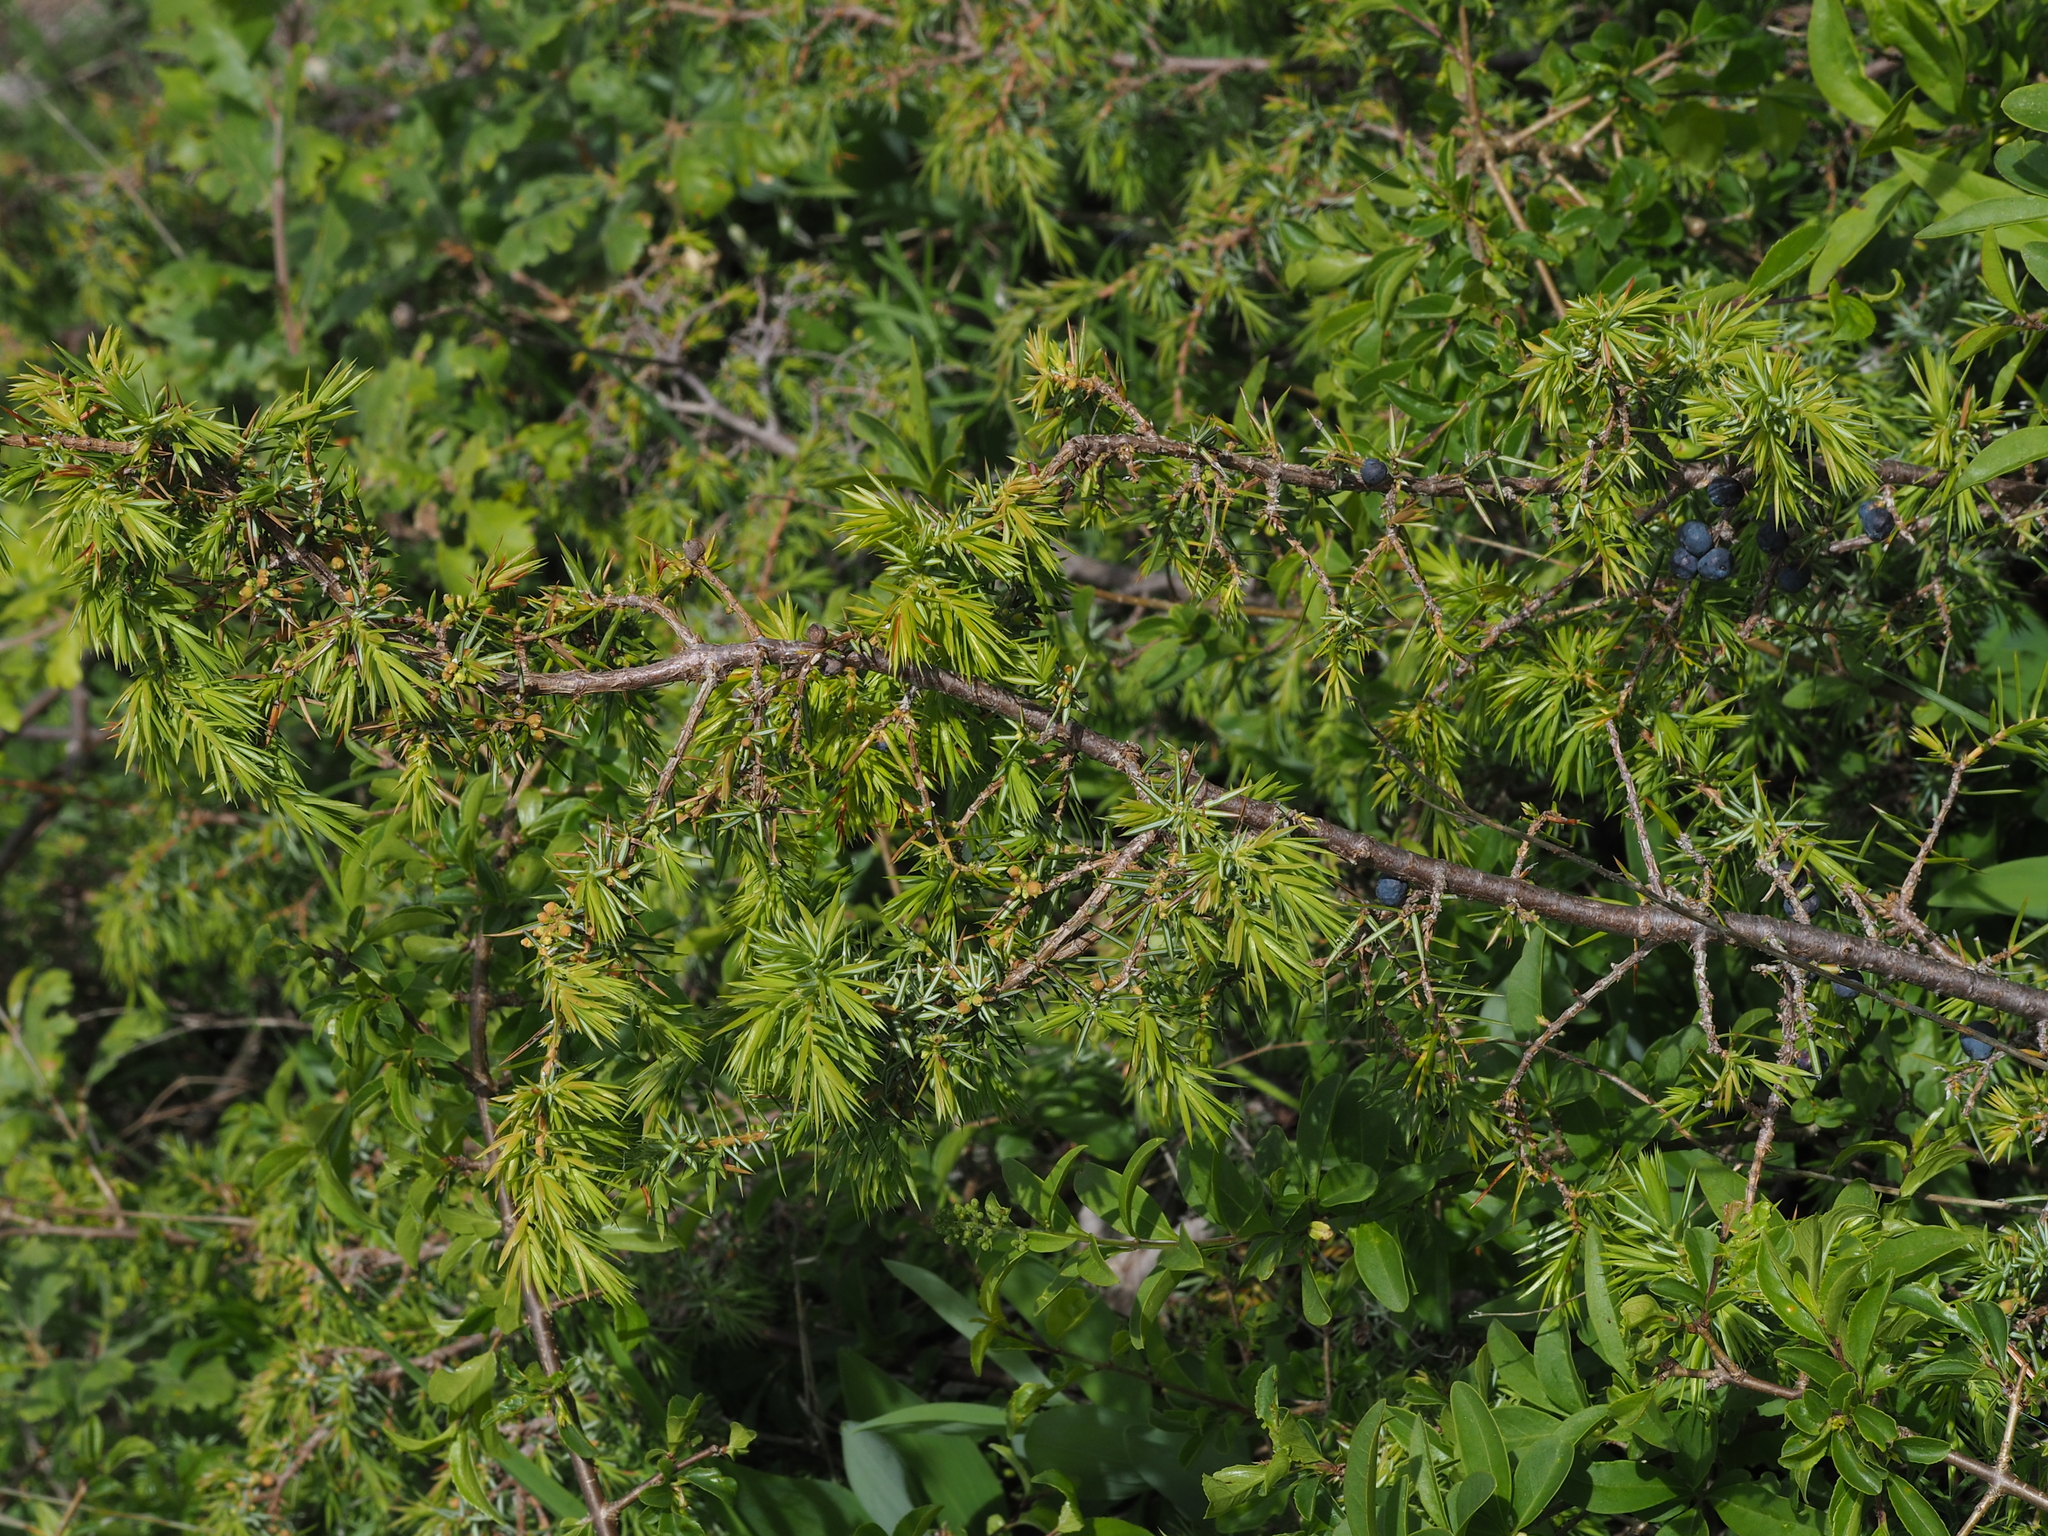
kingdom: Plantae
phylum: Tracheophyta
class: Pinopsida
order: Pinales
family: Cupressaceae
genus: Juniperus
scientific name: Juniperus communis
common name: Common juniper
